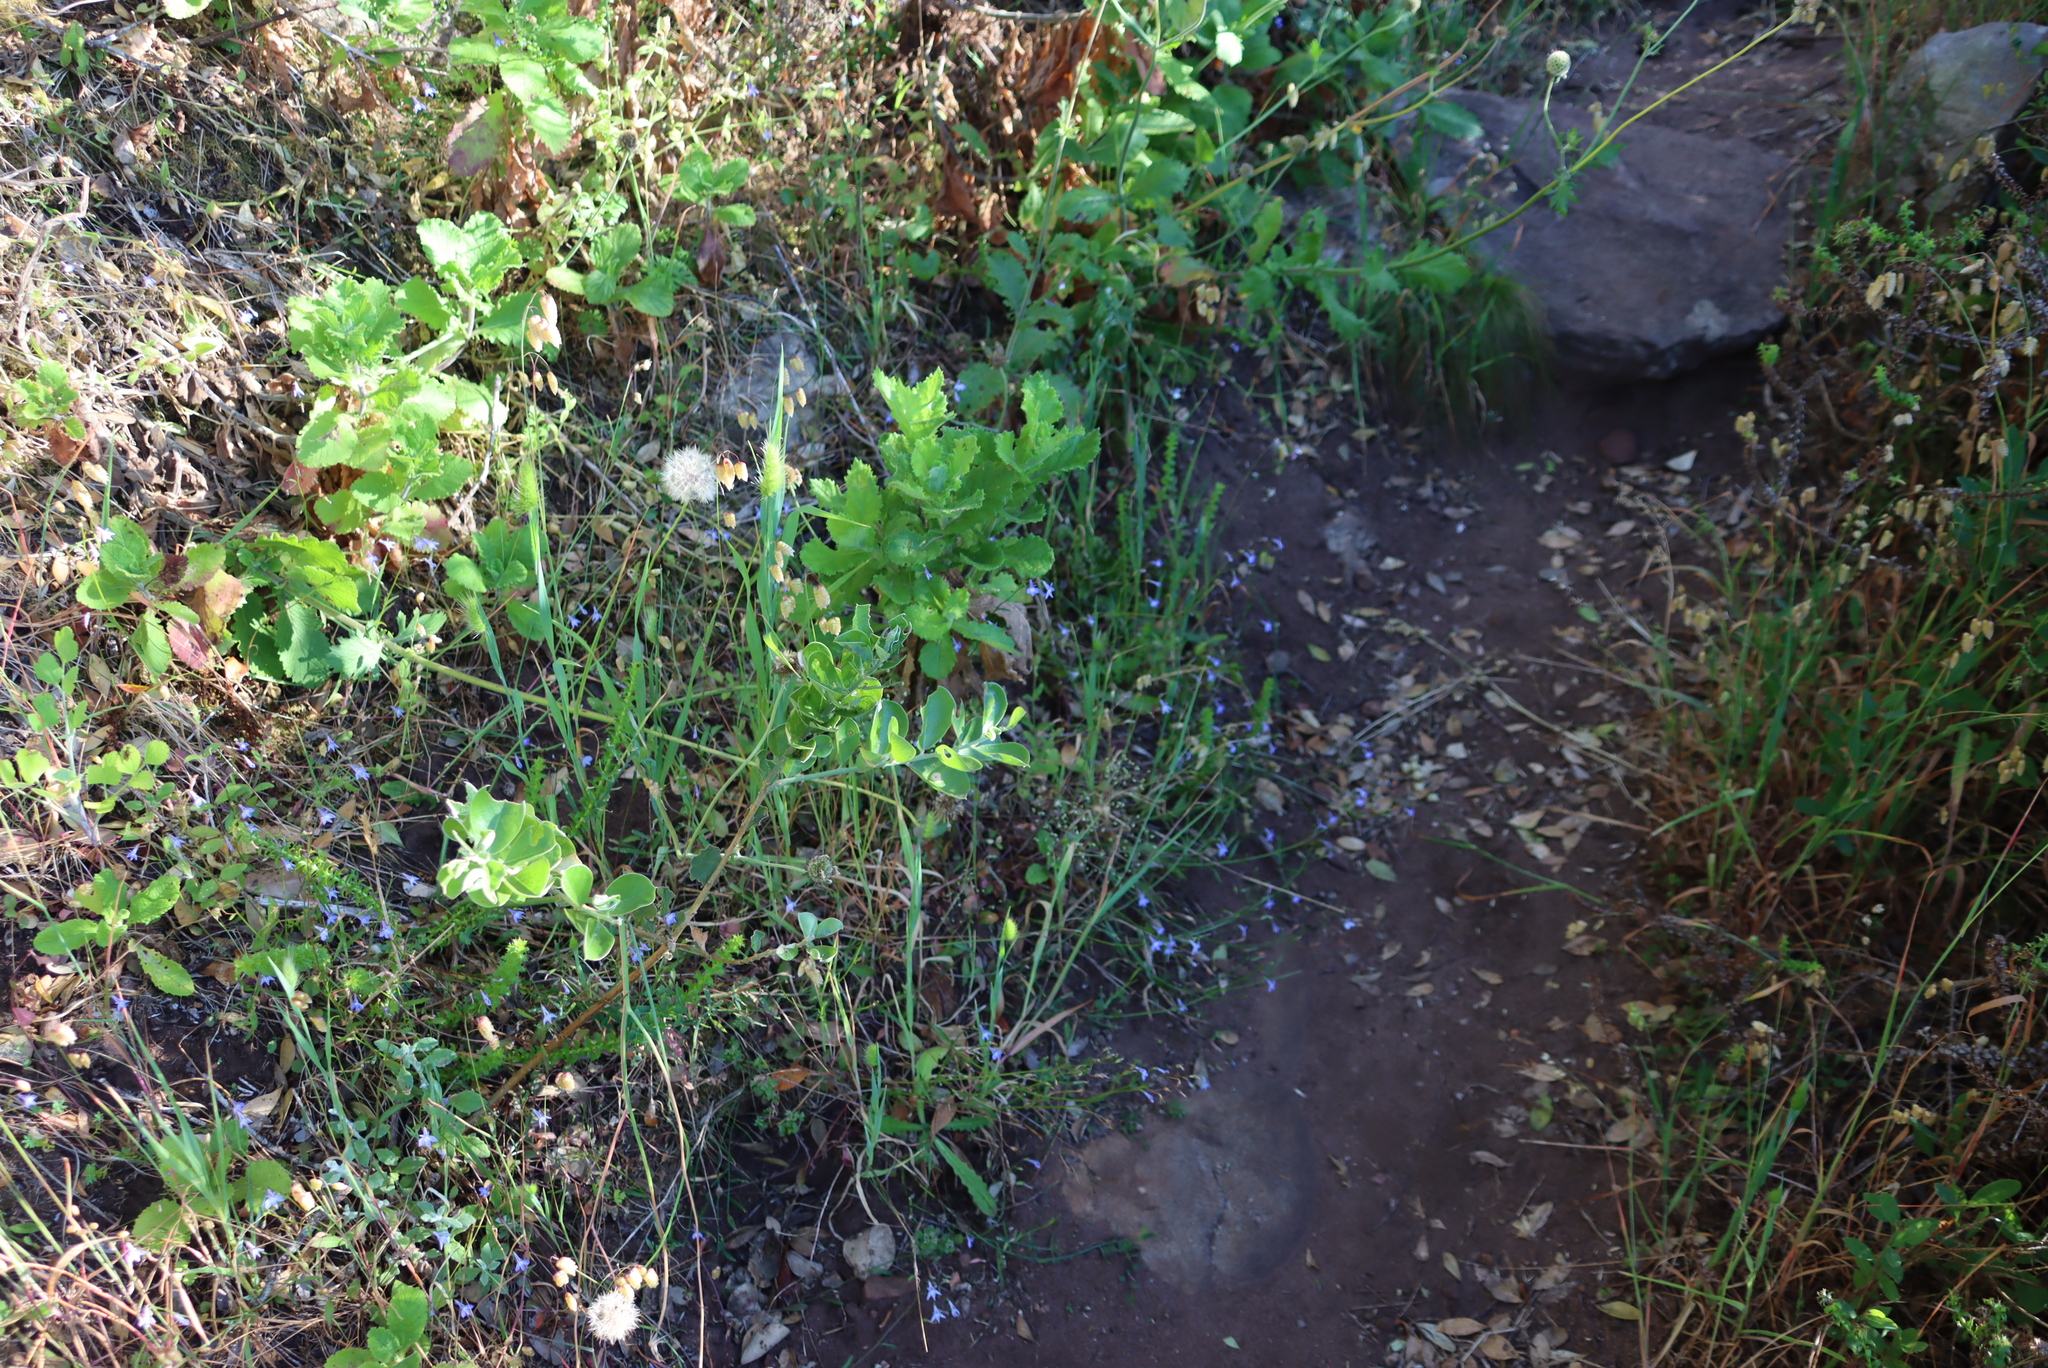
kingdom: Plantae
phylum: Tracheophyta
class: Magnoliopsida
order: Asterales
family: Campanulaceae
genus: Lobelia
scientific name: Lobelia erinus
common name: Edging lobelia
